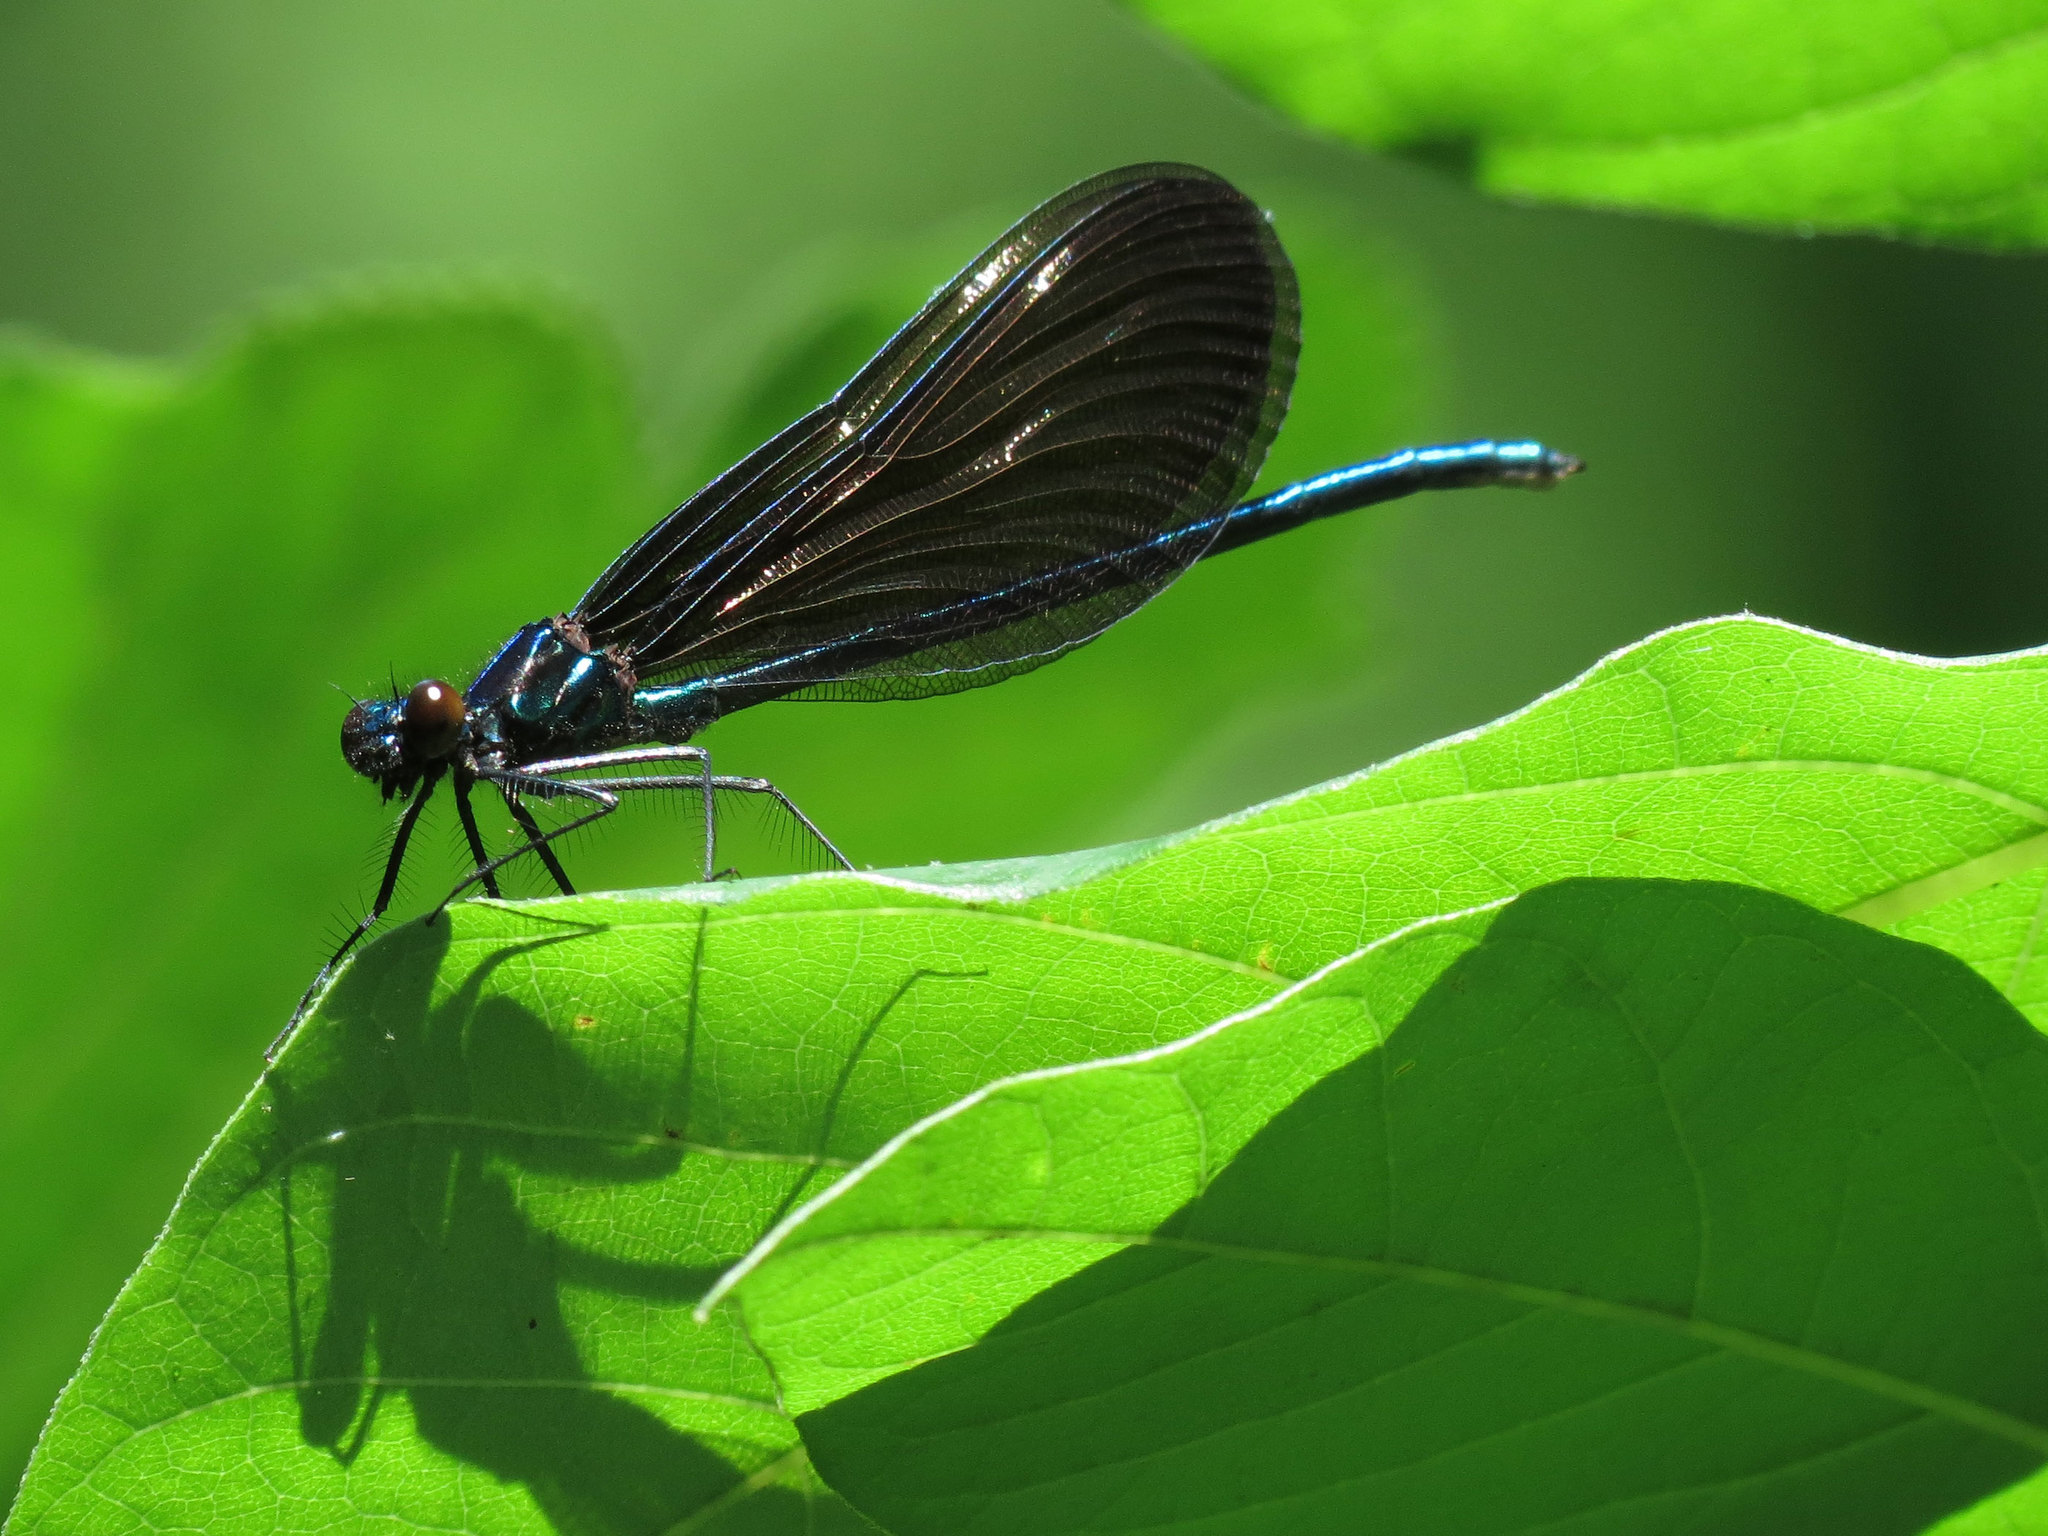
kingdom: Animalia
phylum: Arthropoda
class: Insecta
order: Odonata
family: Calopterygidae
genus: Calopteryx
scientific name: Calopteryx maculata
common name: Ebony jewelwing
